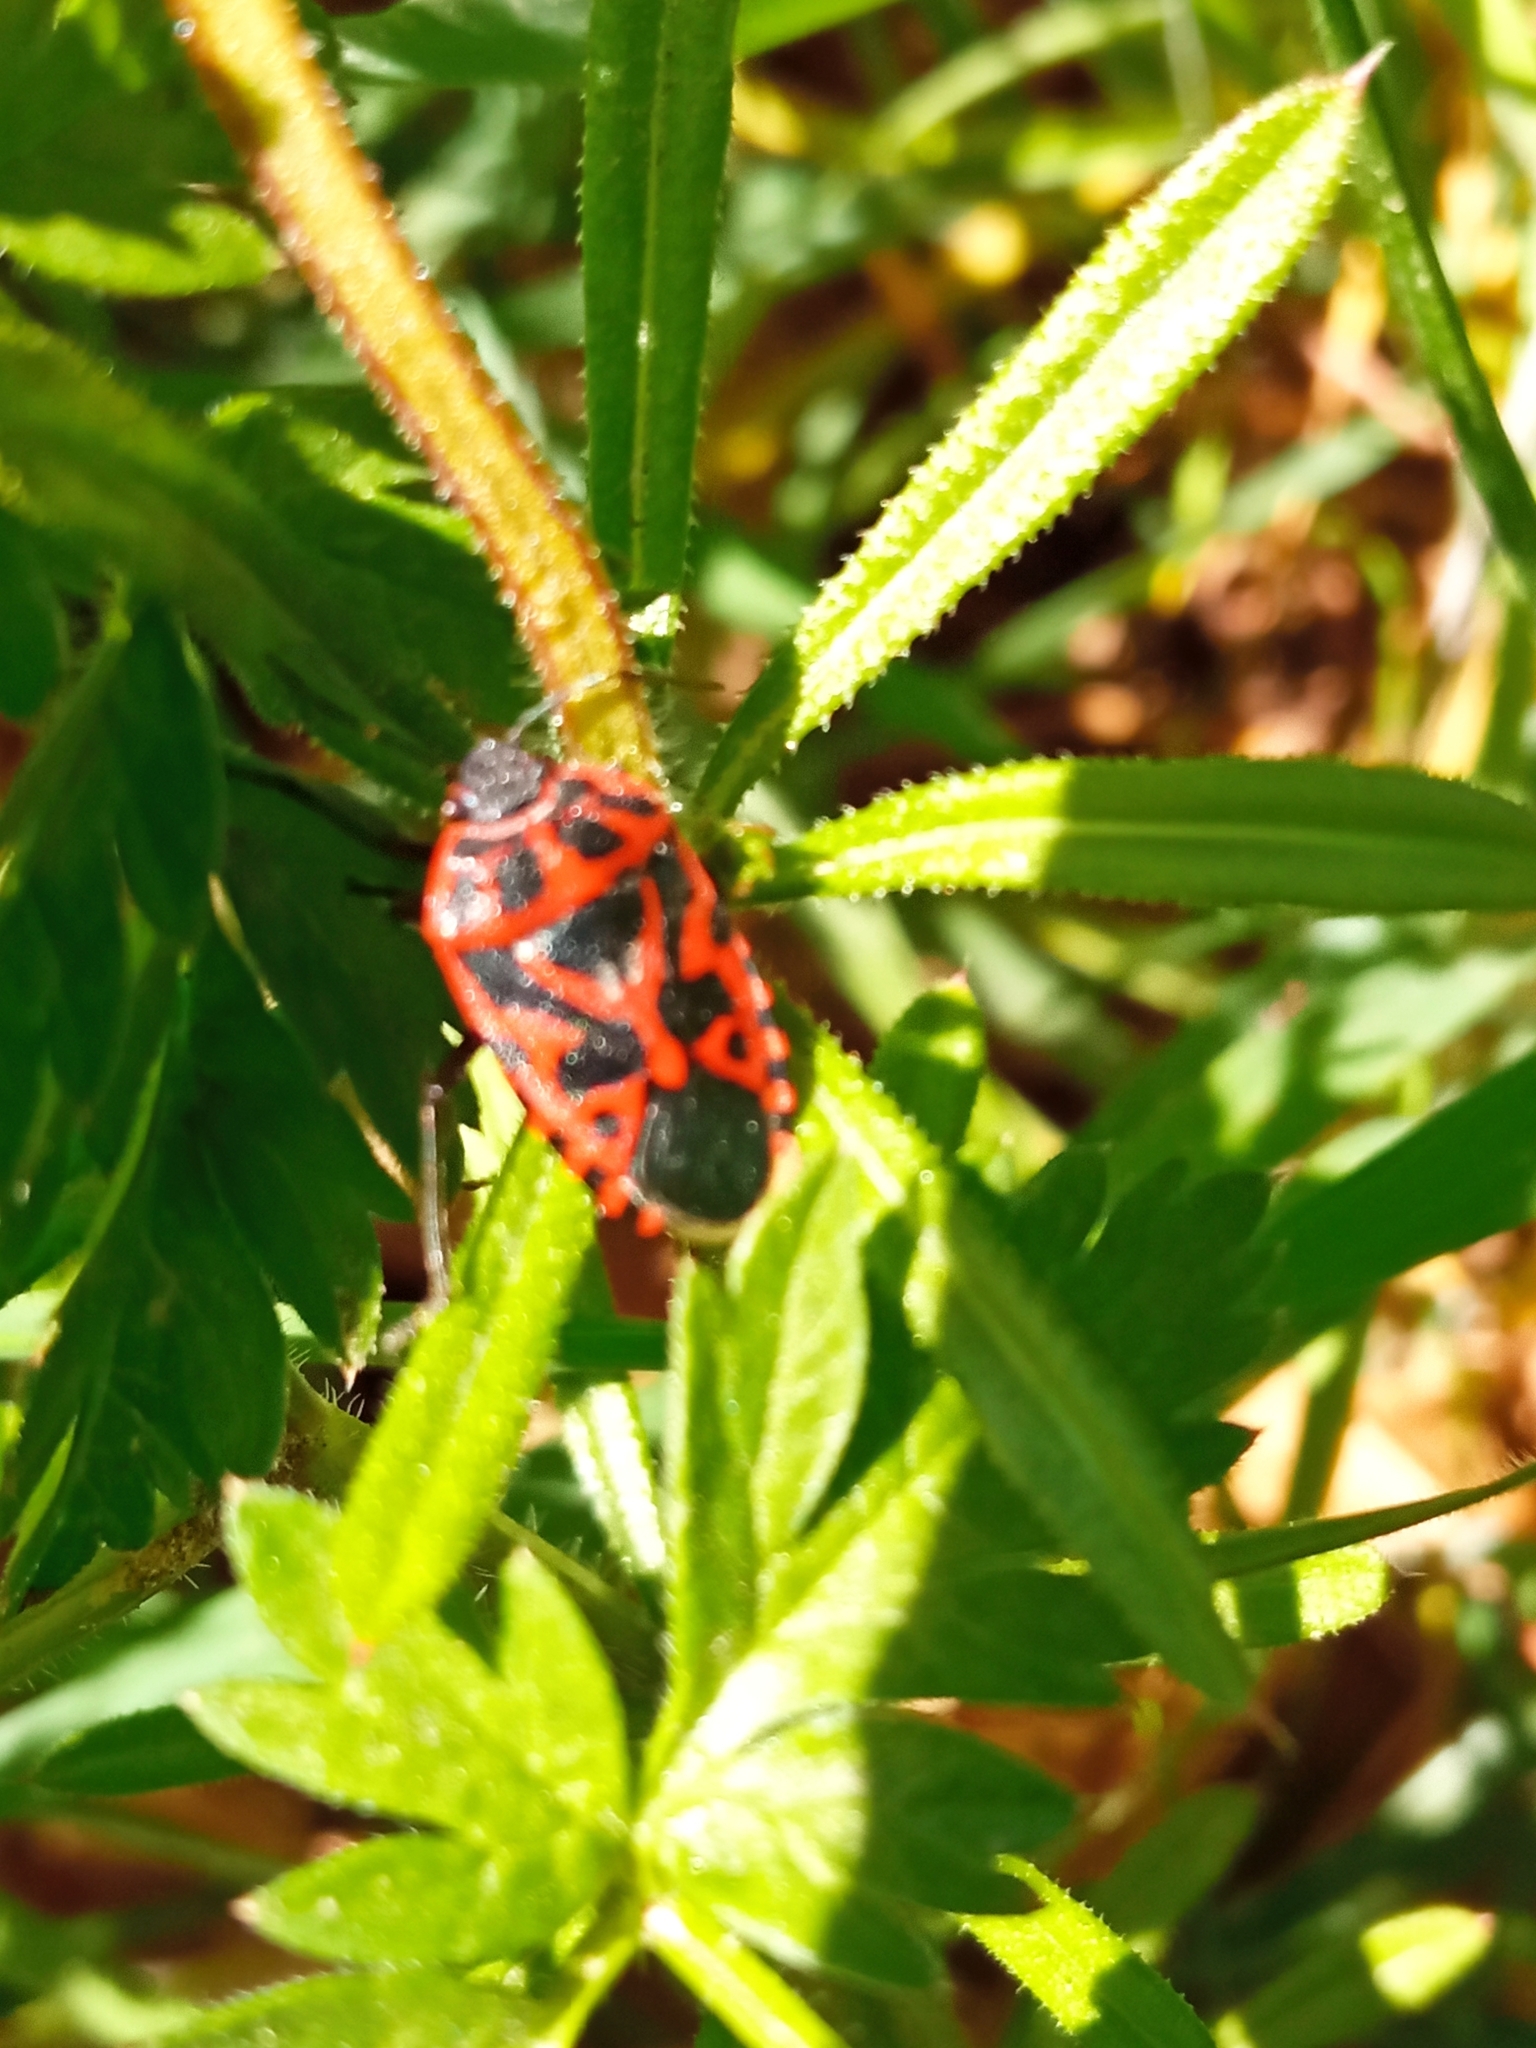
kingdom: Animalia
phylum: Arthropoda
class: Insecta
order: Hemiptera
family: Pentatomidae
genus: Eurydema
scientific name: Eurydema ventralis
